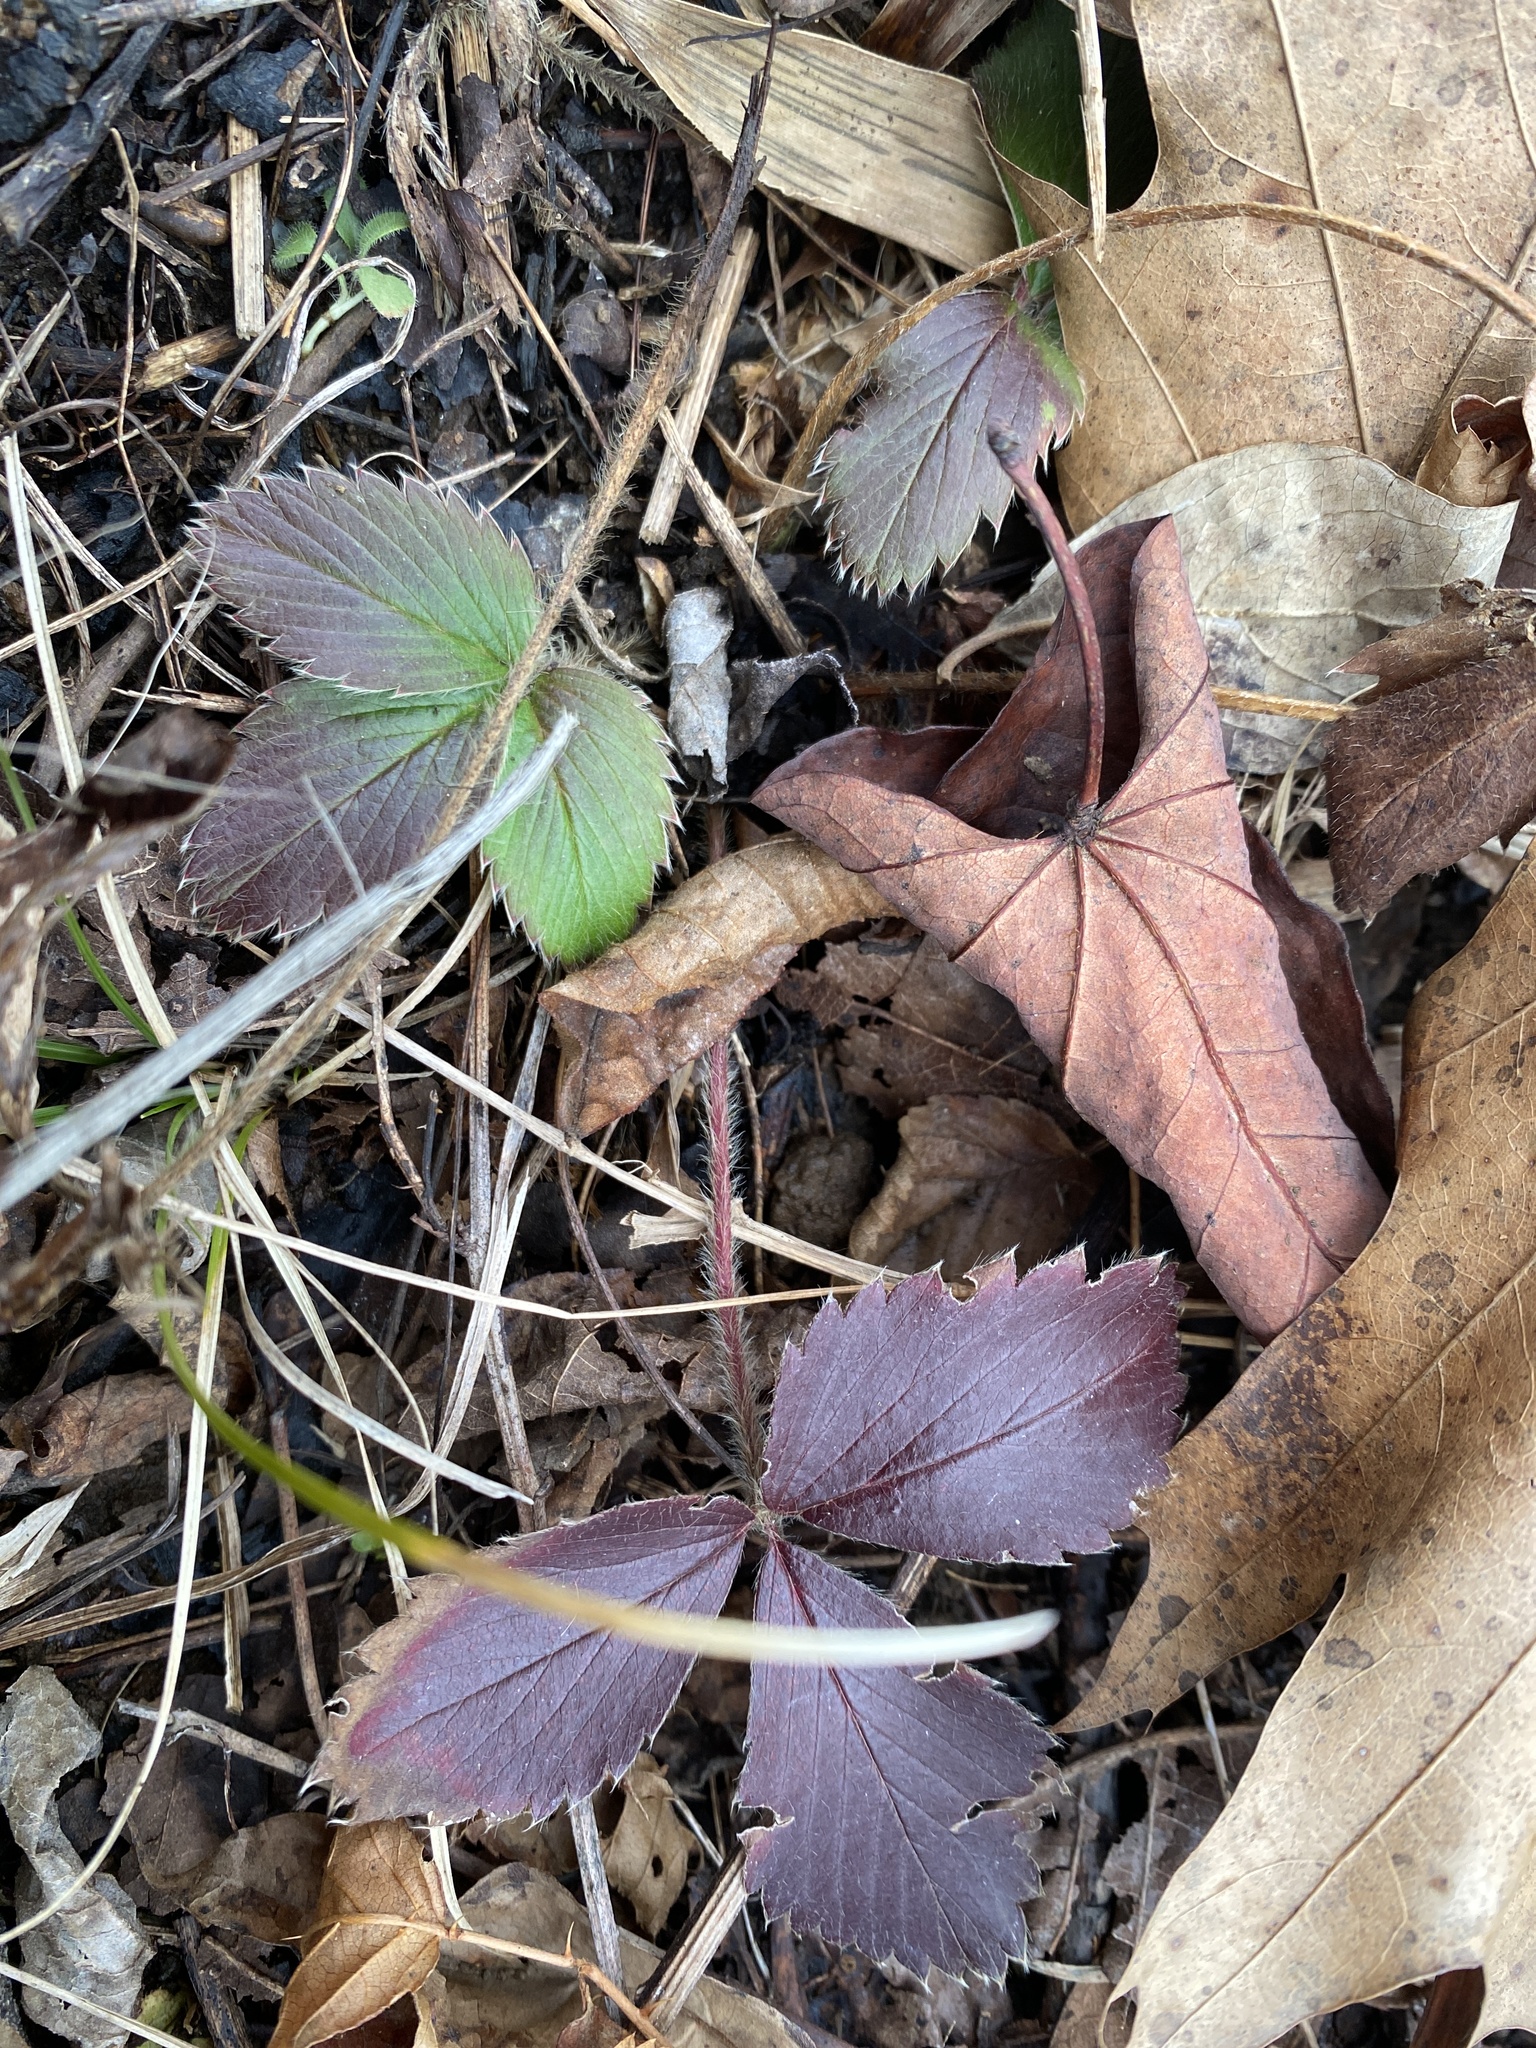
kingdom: Plantae
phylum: Tracheophyta
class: Magnoliopsida
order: Rosales
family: Rosaceae
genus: Fragaria
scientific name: Fragaria virginiana
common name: Thickleaved wild strawberry
